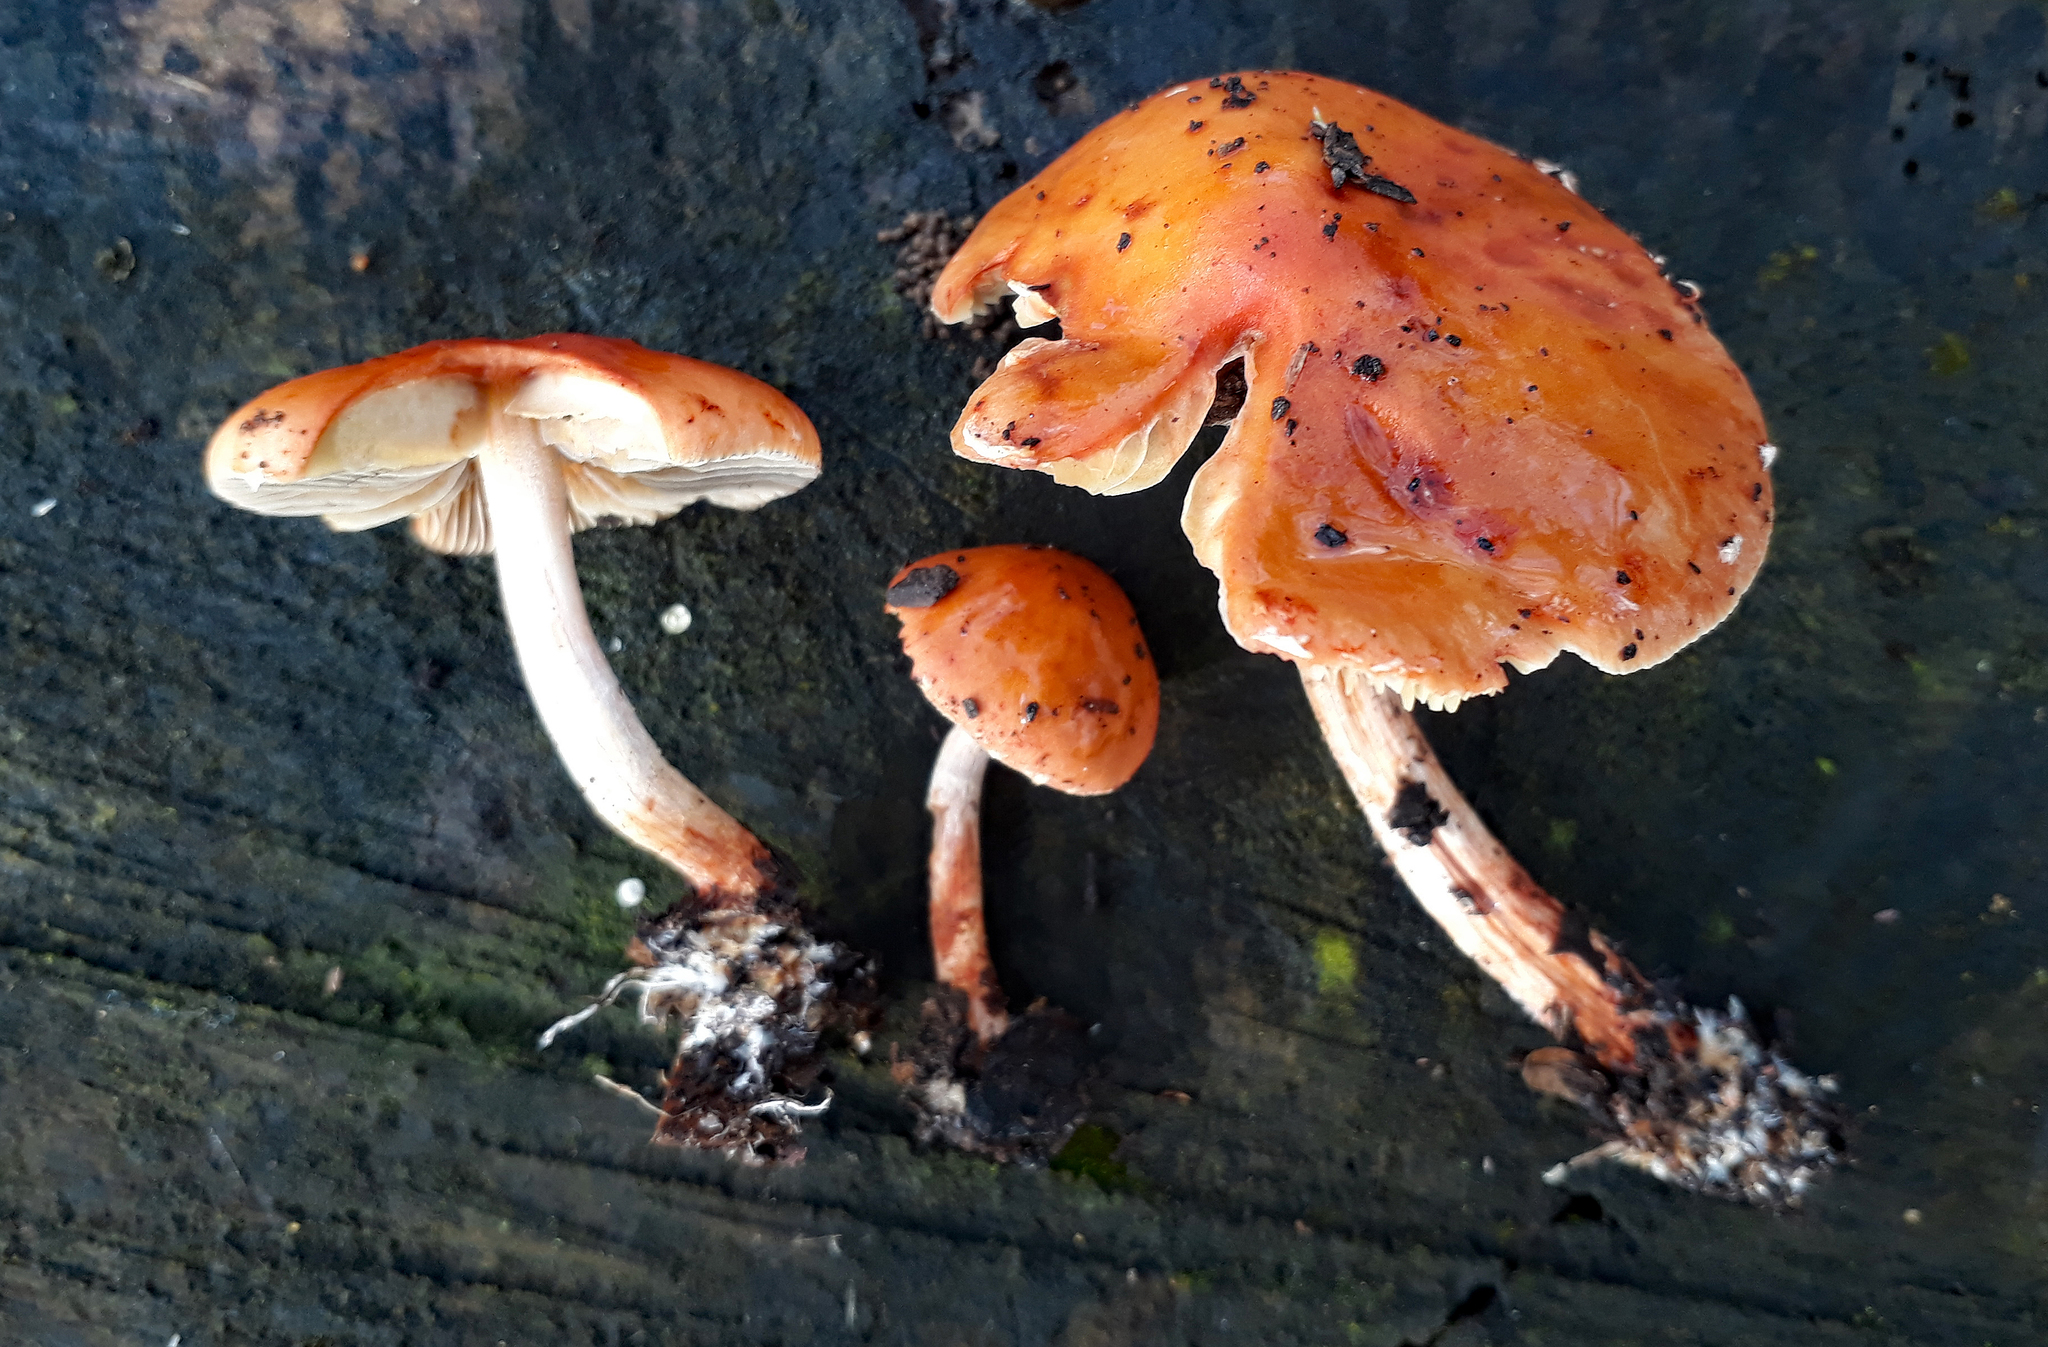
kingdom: Fungi
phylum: Basidiomycota
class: Agaricomycetes
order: Agaricales
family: Strophariaceae
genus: Leratiomyces
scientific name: Leratiomyces ceres
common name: Redlead roundhead
